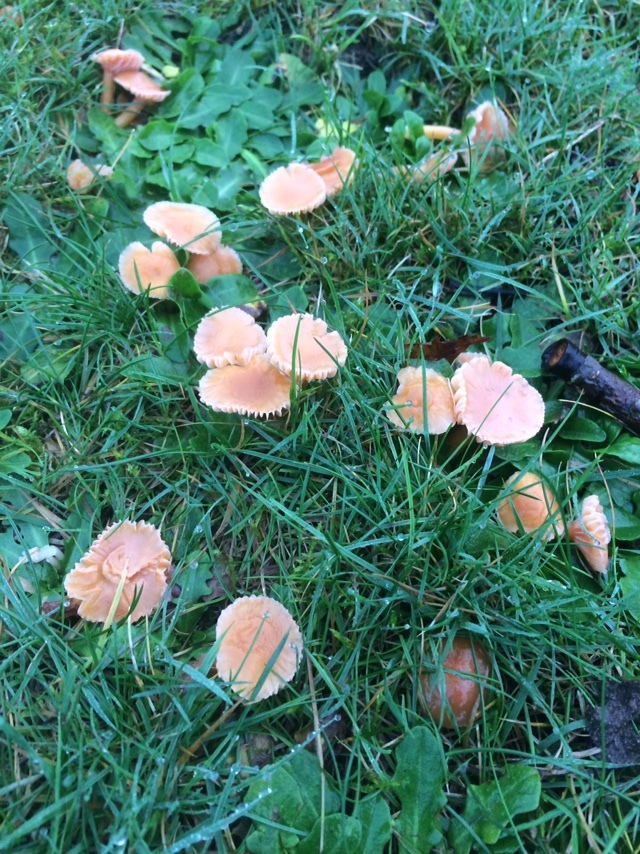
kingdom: Fungi
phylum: Basidiomycota
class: Agaricomycetes
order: Agaricales
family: Hygrophoraceae
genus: Gliophorus
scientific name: Gliophorus laetus
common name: Heath waxcap
